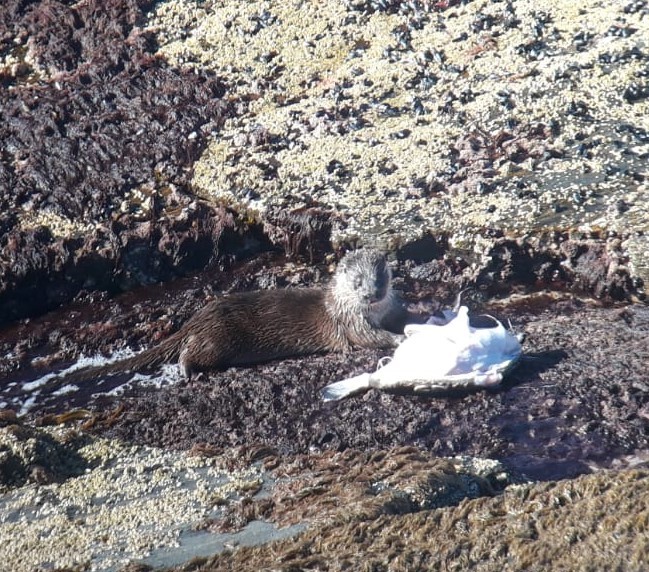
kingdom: Animalia
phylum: Chordata
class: Mammalia
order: Carnivora
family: Mustelidae
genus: Lutra
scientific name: Lutra lutra
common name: European otter
